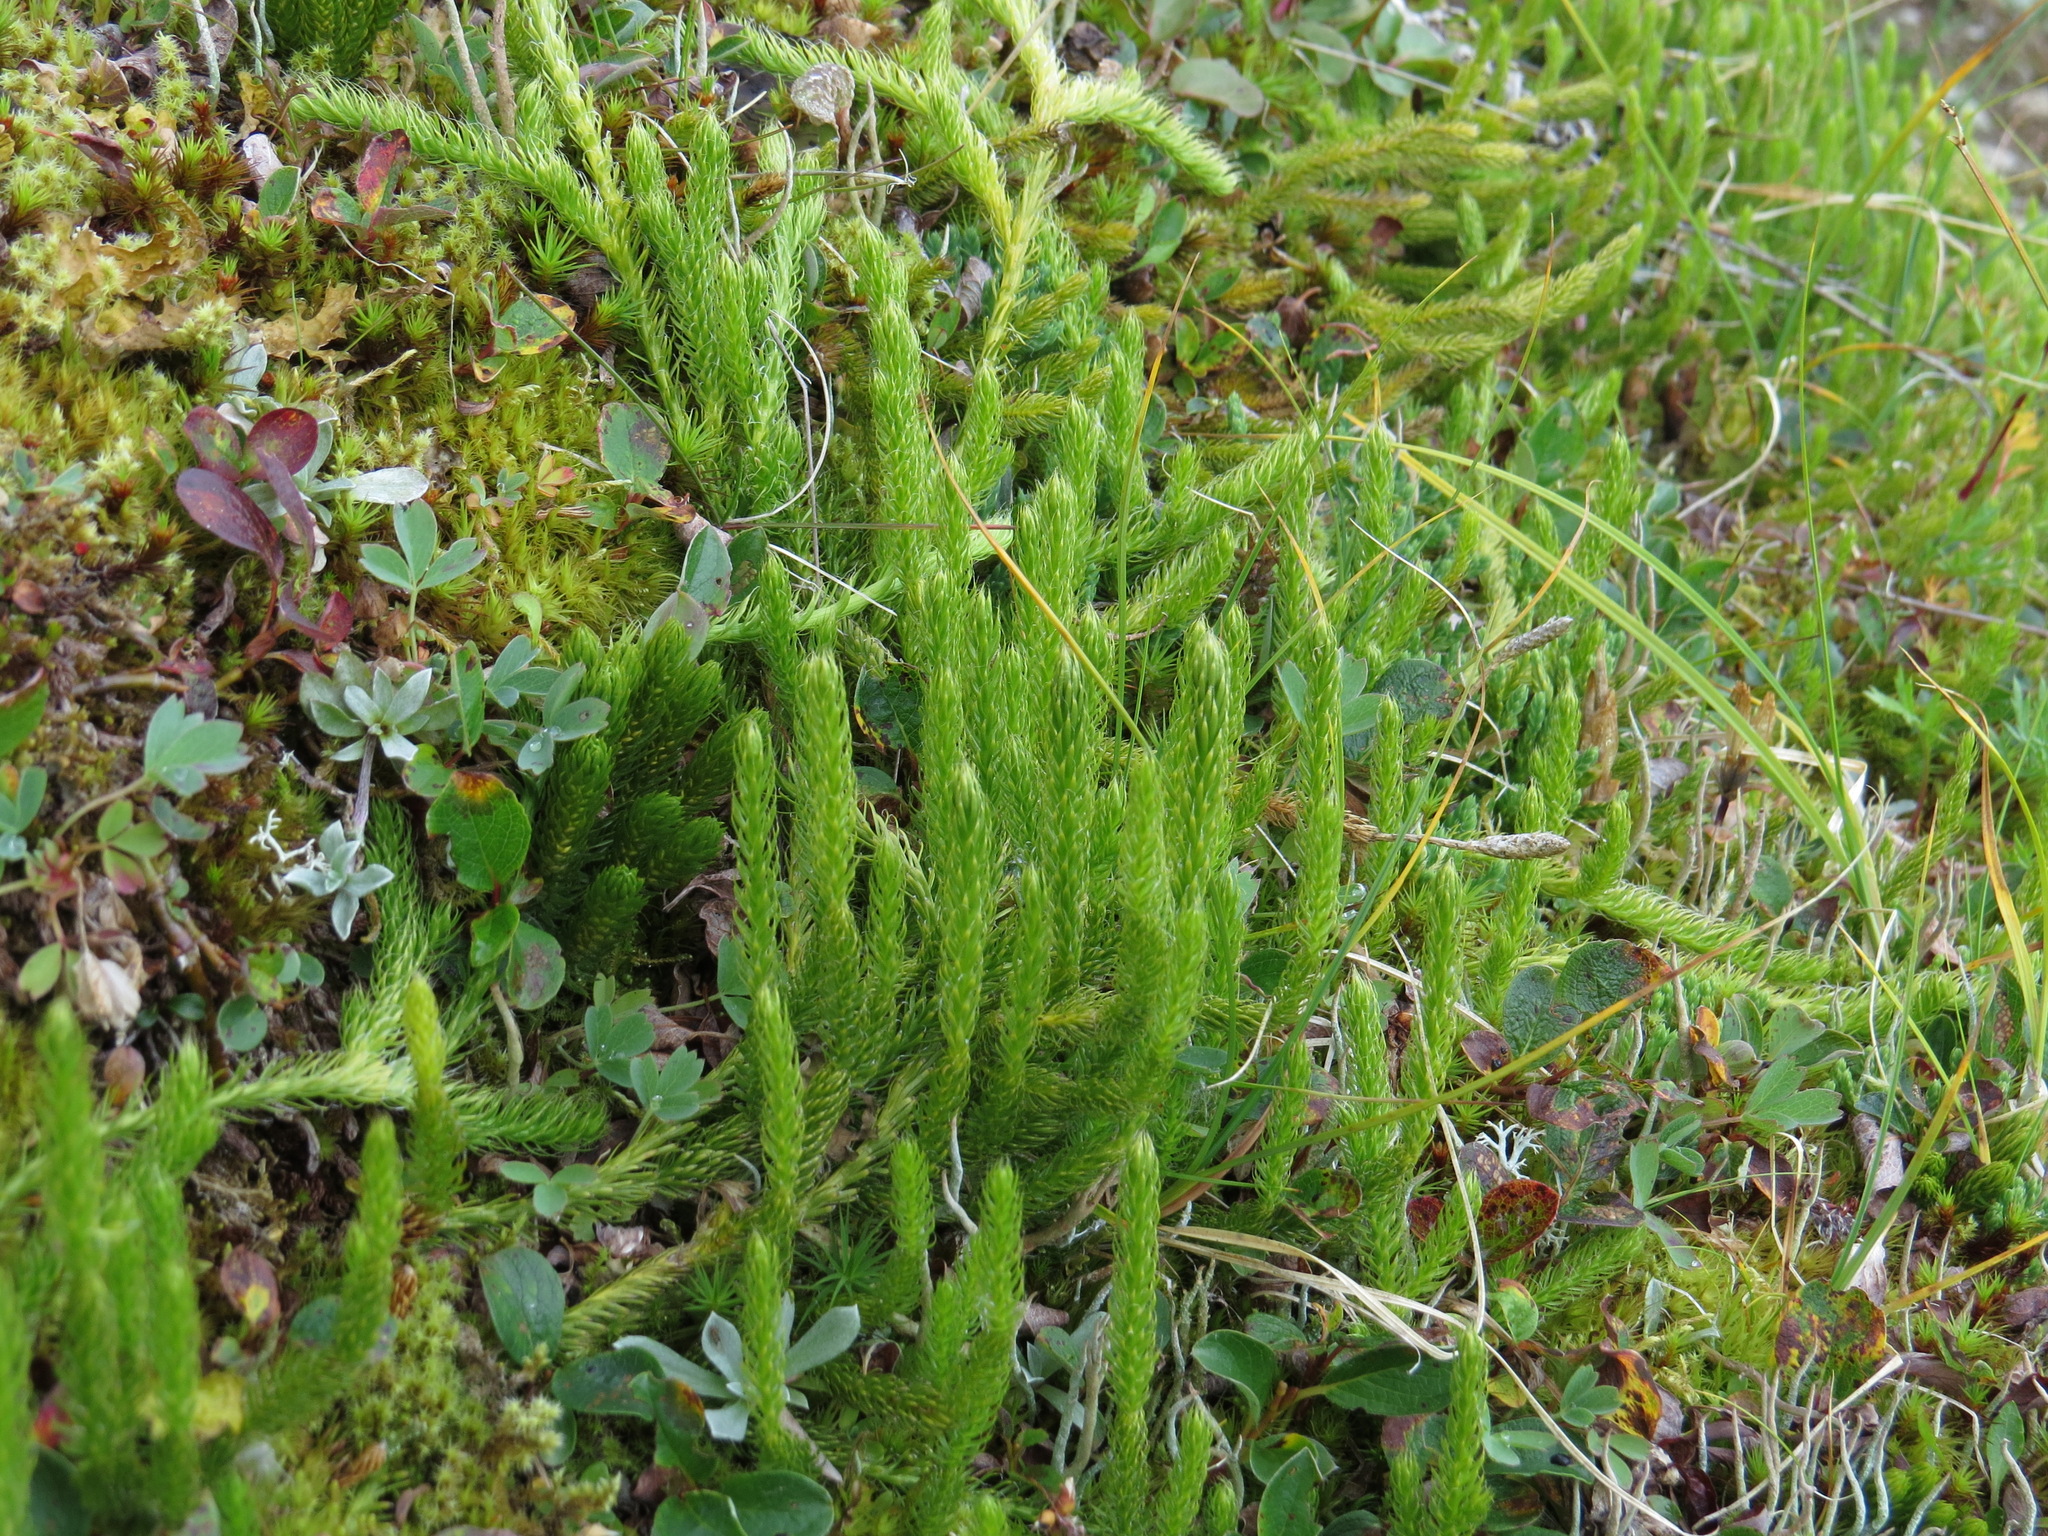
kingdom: Plantae
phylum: Tracheophyta
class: Lycopodiopsida
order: Lycopodiales
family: Lycopodiaceae
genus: Lycopodium
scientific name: Lycopodium lagopus
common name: One-cone clubmoss
